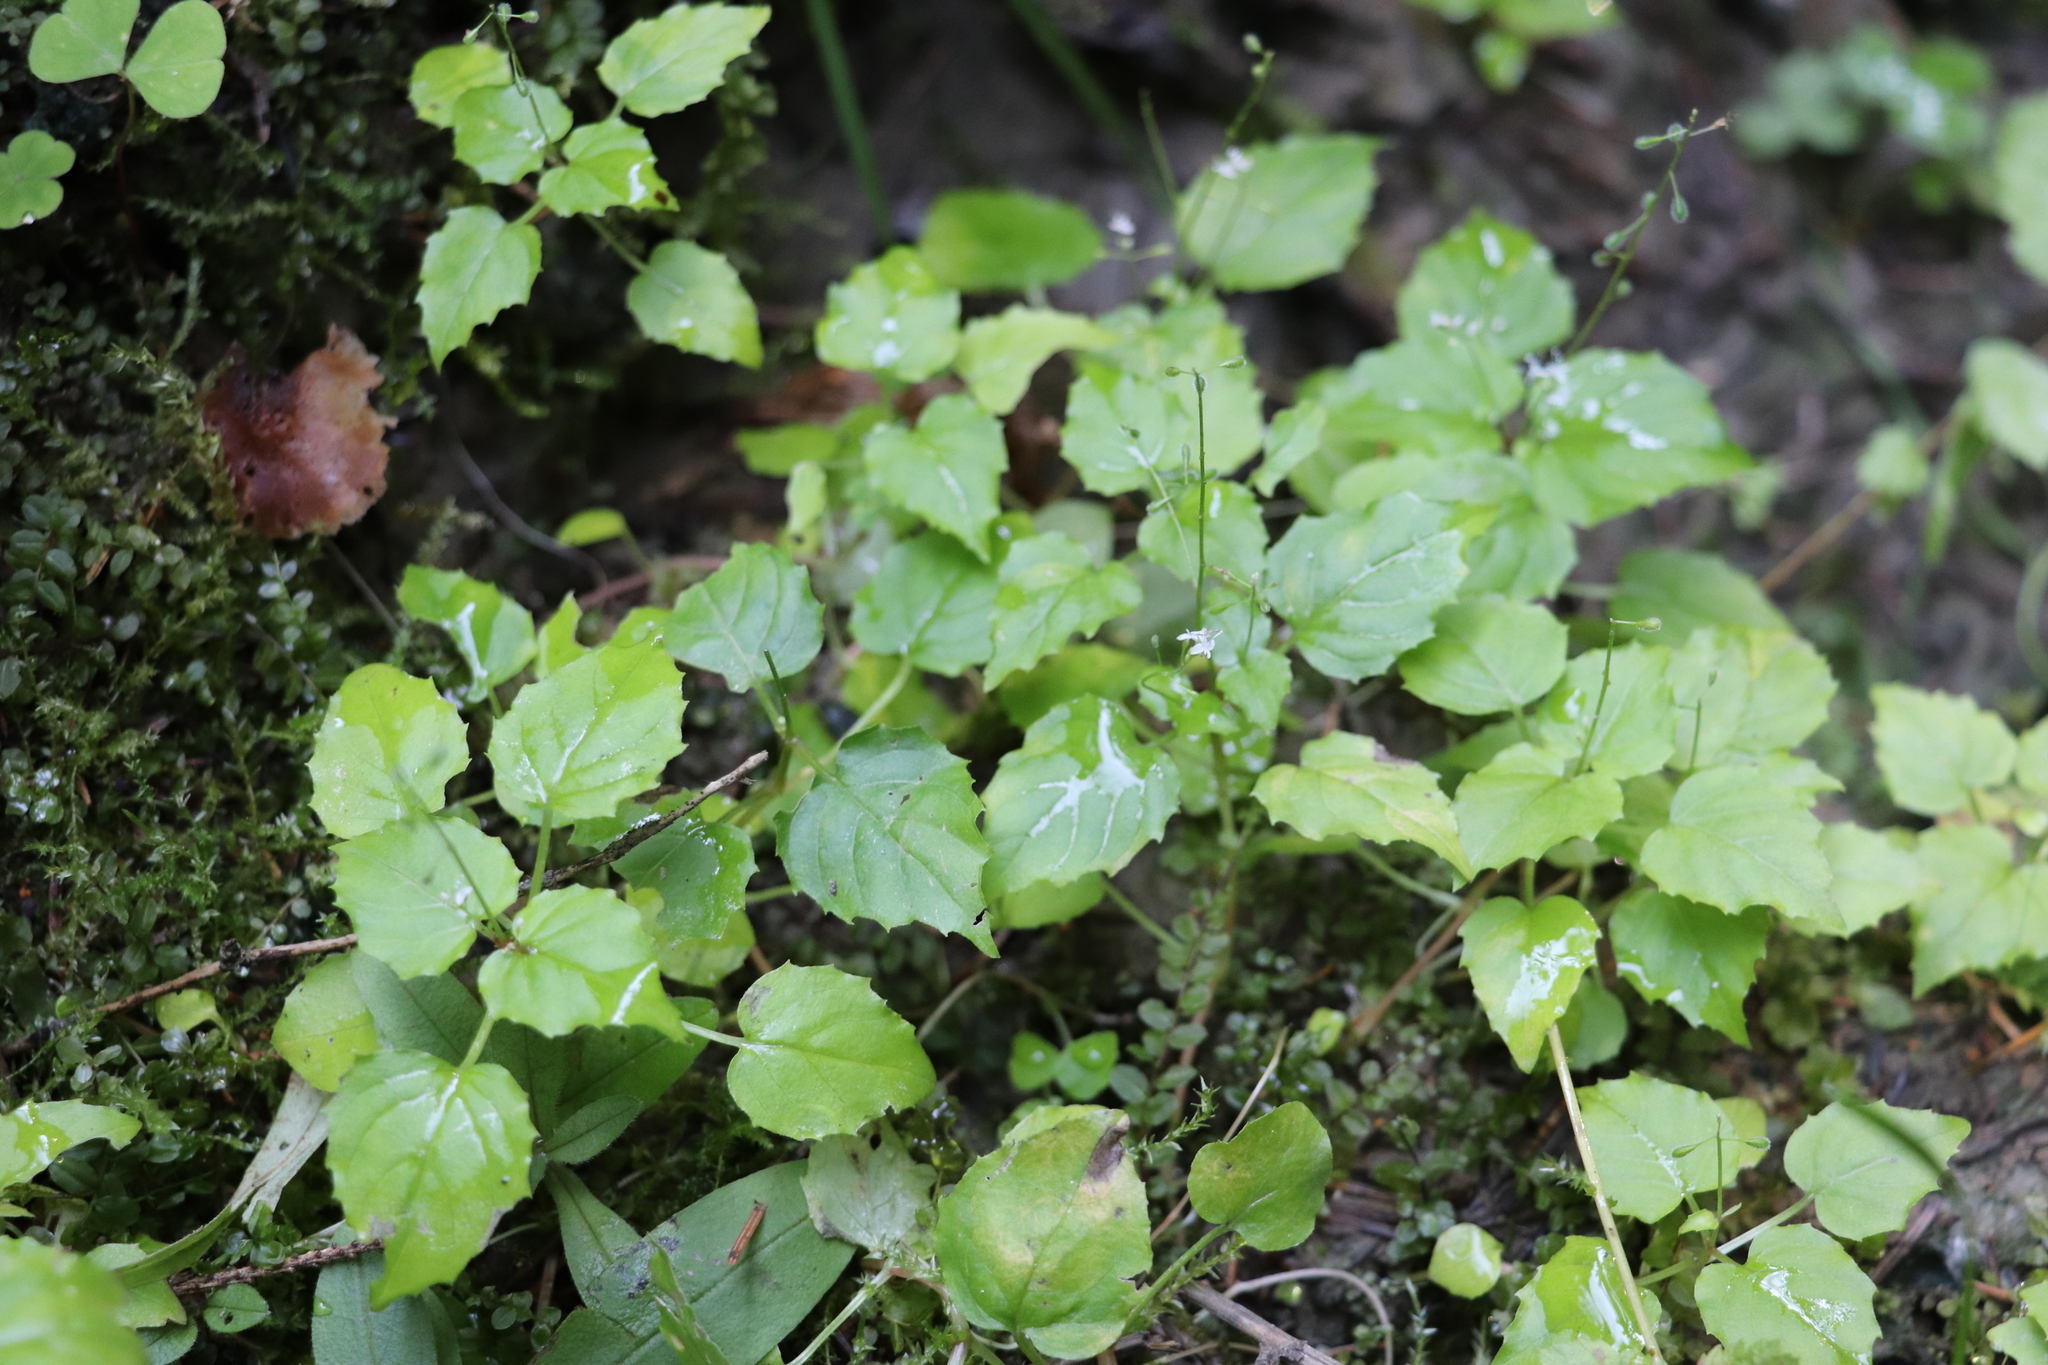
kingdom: Plantae
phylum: Tracheophyta
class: Magnoliopsida
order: Myrtales
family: Onagraceae
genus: Circaea
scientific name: Circaea alpina
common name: Alpine enchanter's-nightshade
